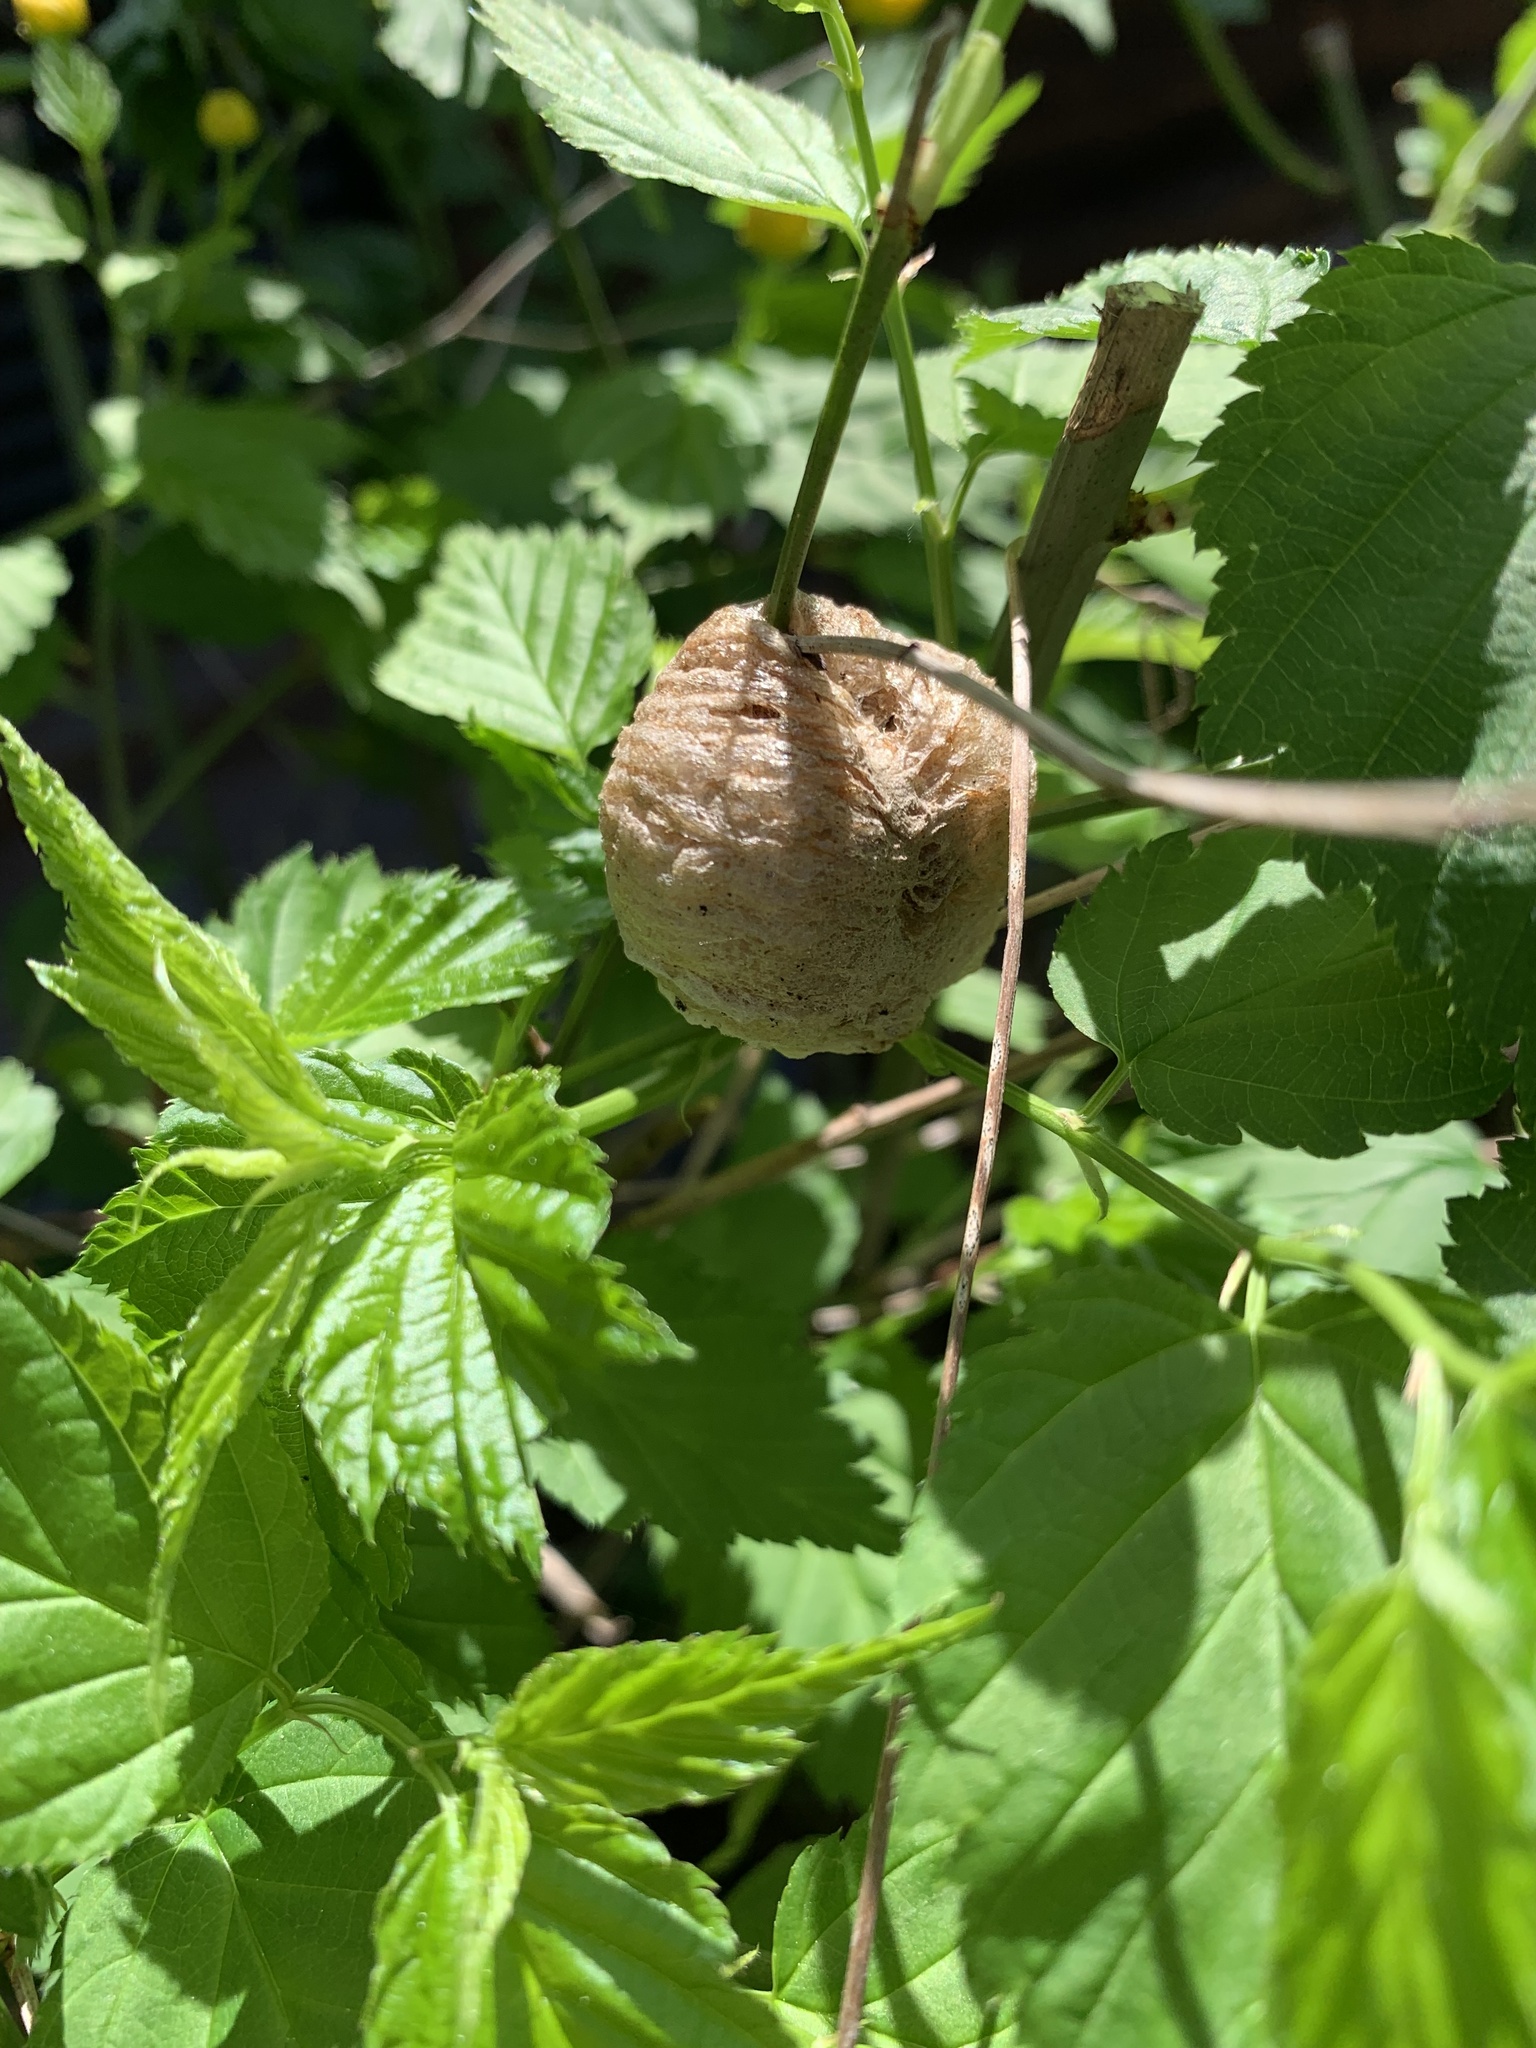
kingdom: Animalia
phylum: Arthropoda
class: Insecta
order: Mantodea
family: Mantidae
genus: Tenodera
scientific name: Tenodera sinensis
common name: Chinese mantis
